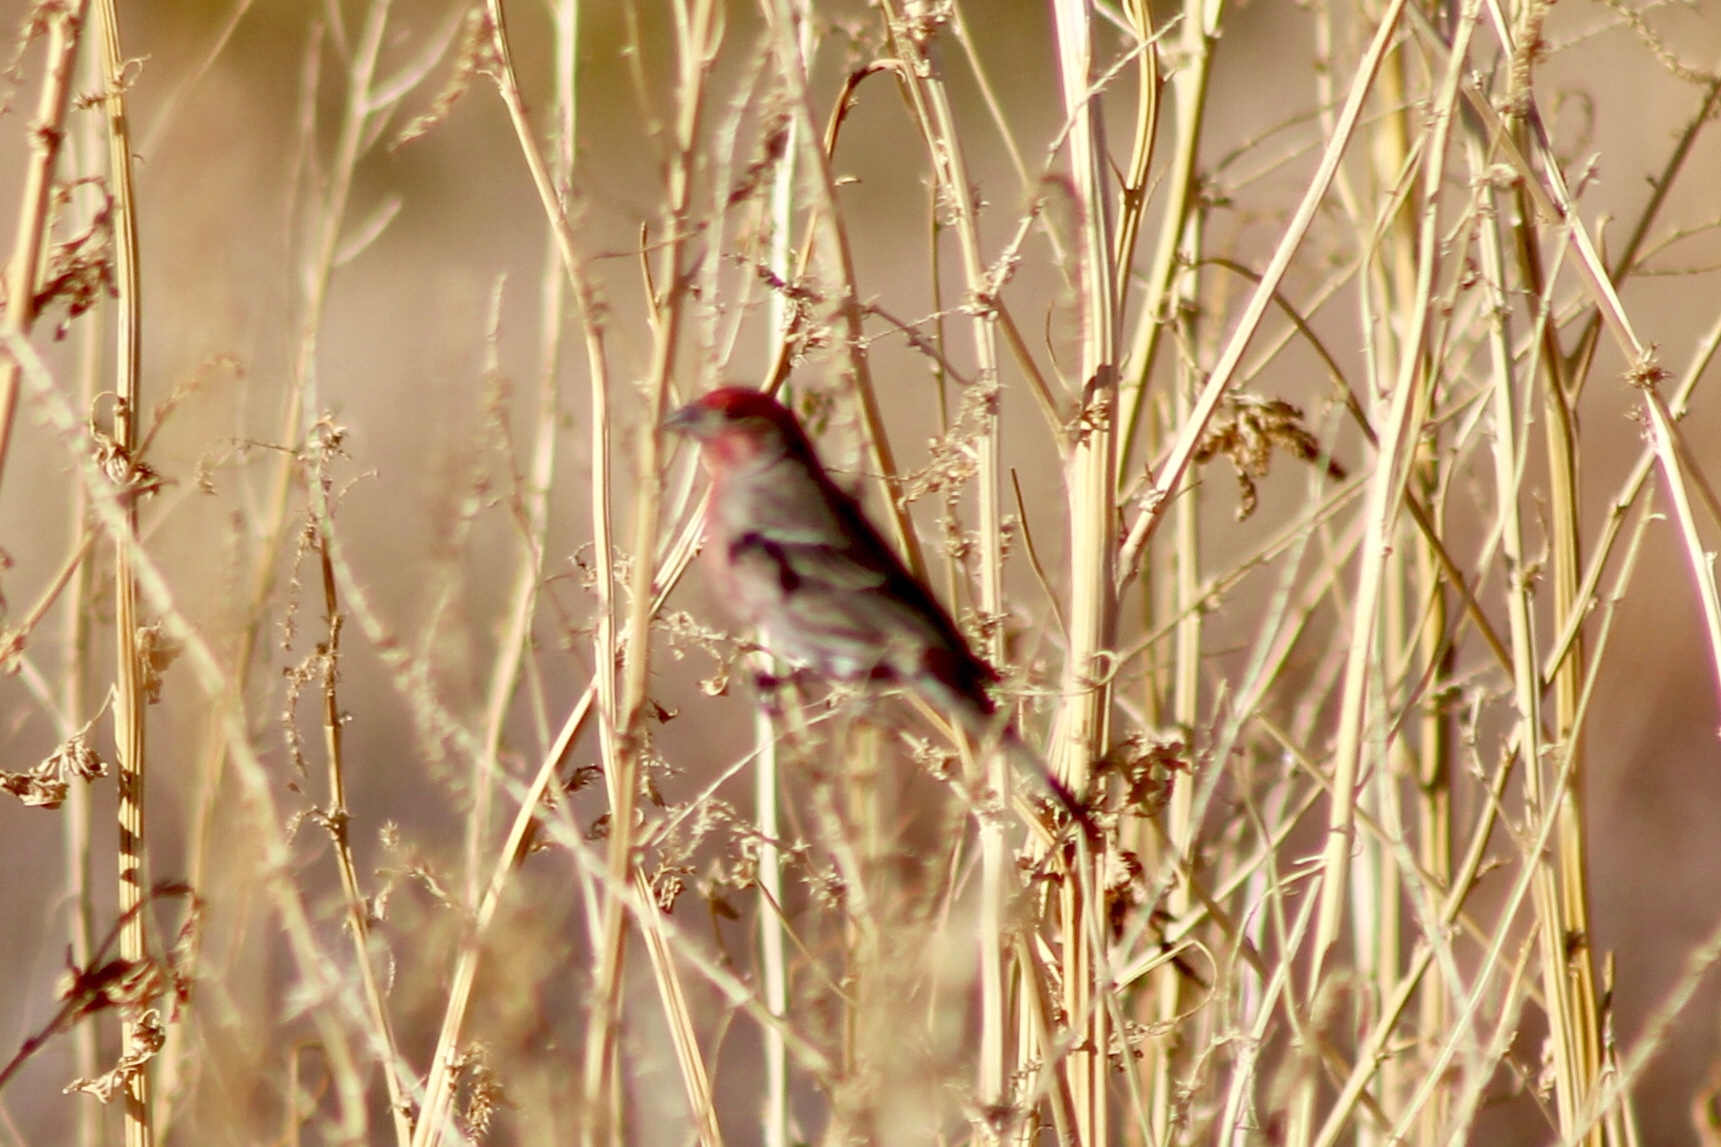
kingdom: Animalia
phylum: Chordata
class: Aves
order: Passeriformes
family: Fringillidae
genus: Haemorhous
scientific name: Haemorhous mexicanus
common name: House finch
